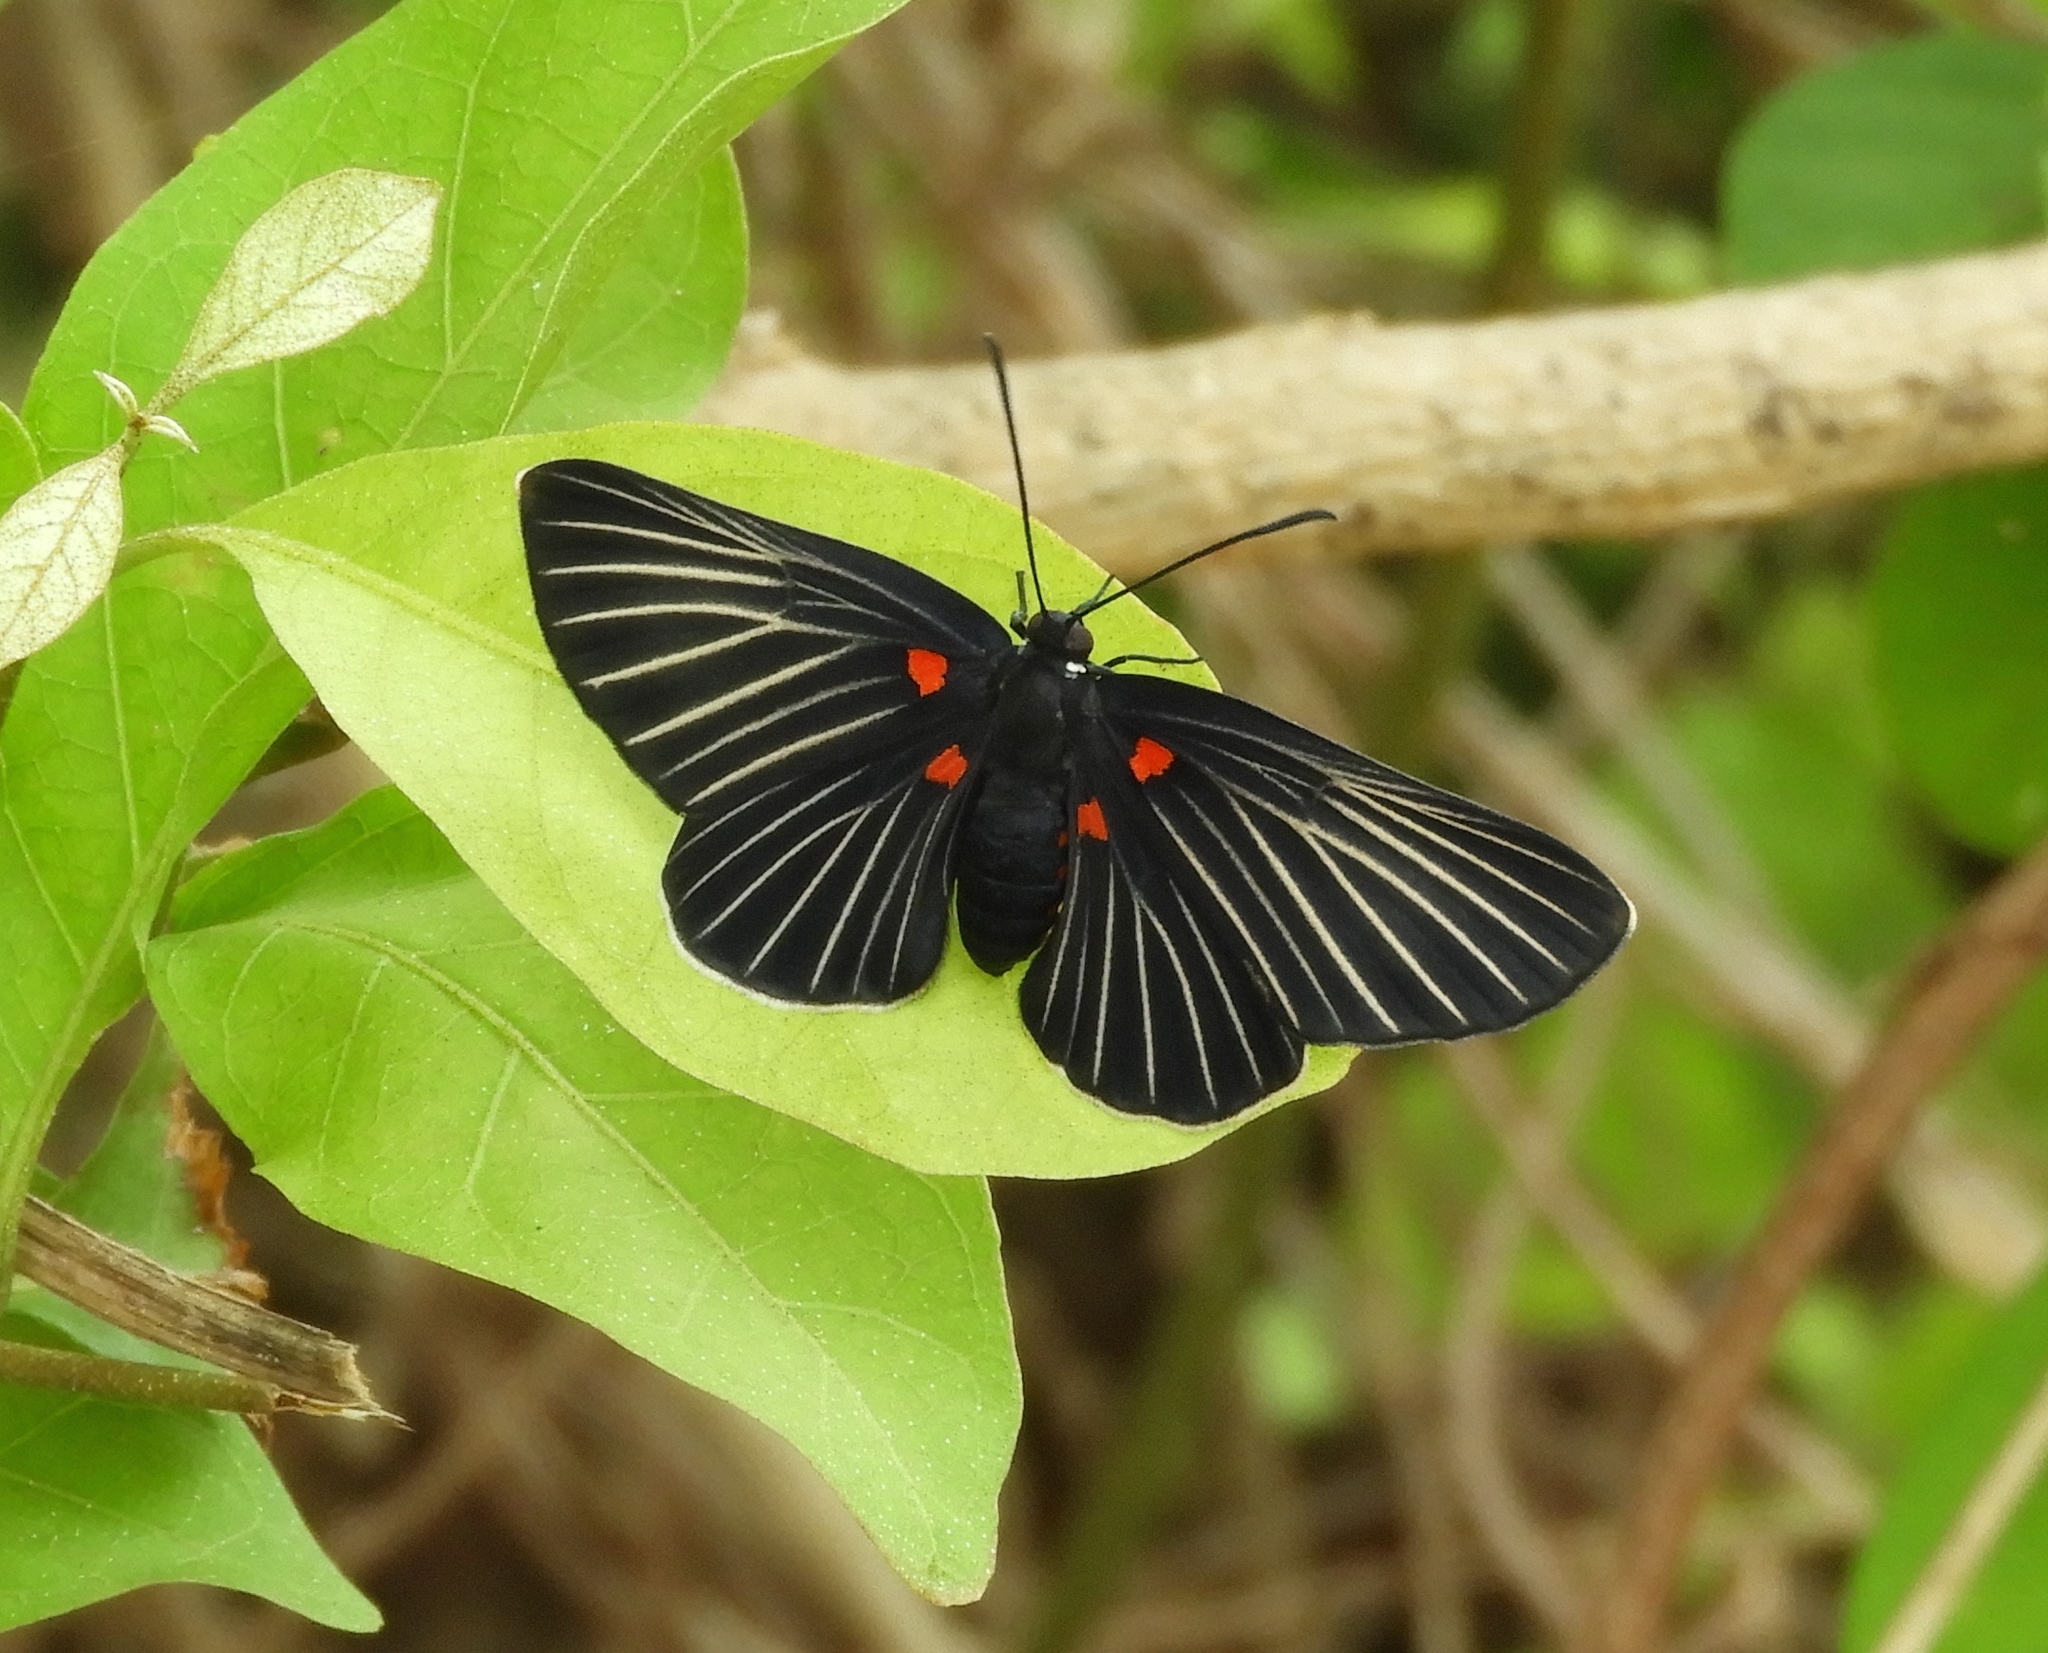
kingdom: Animalia
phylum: Arthropoda
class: Insecta
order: Lepidoptera
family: Lycaenidae
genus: Melanis
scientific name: Melanis
